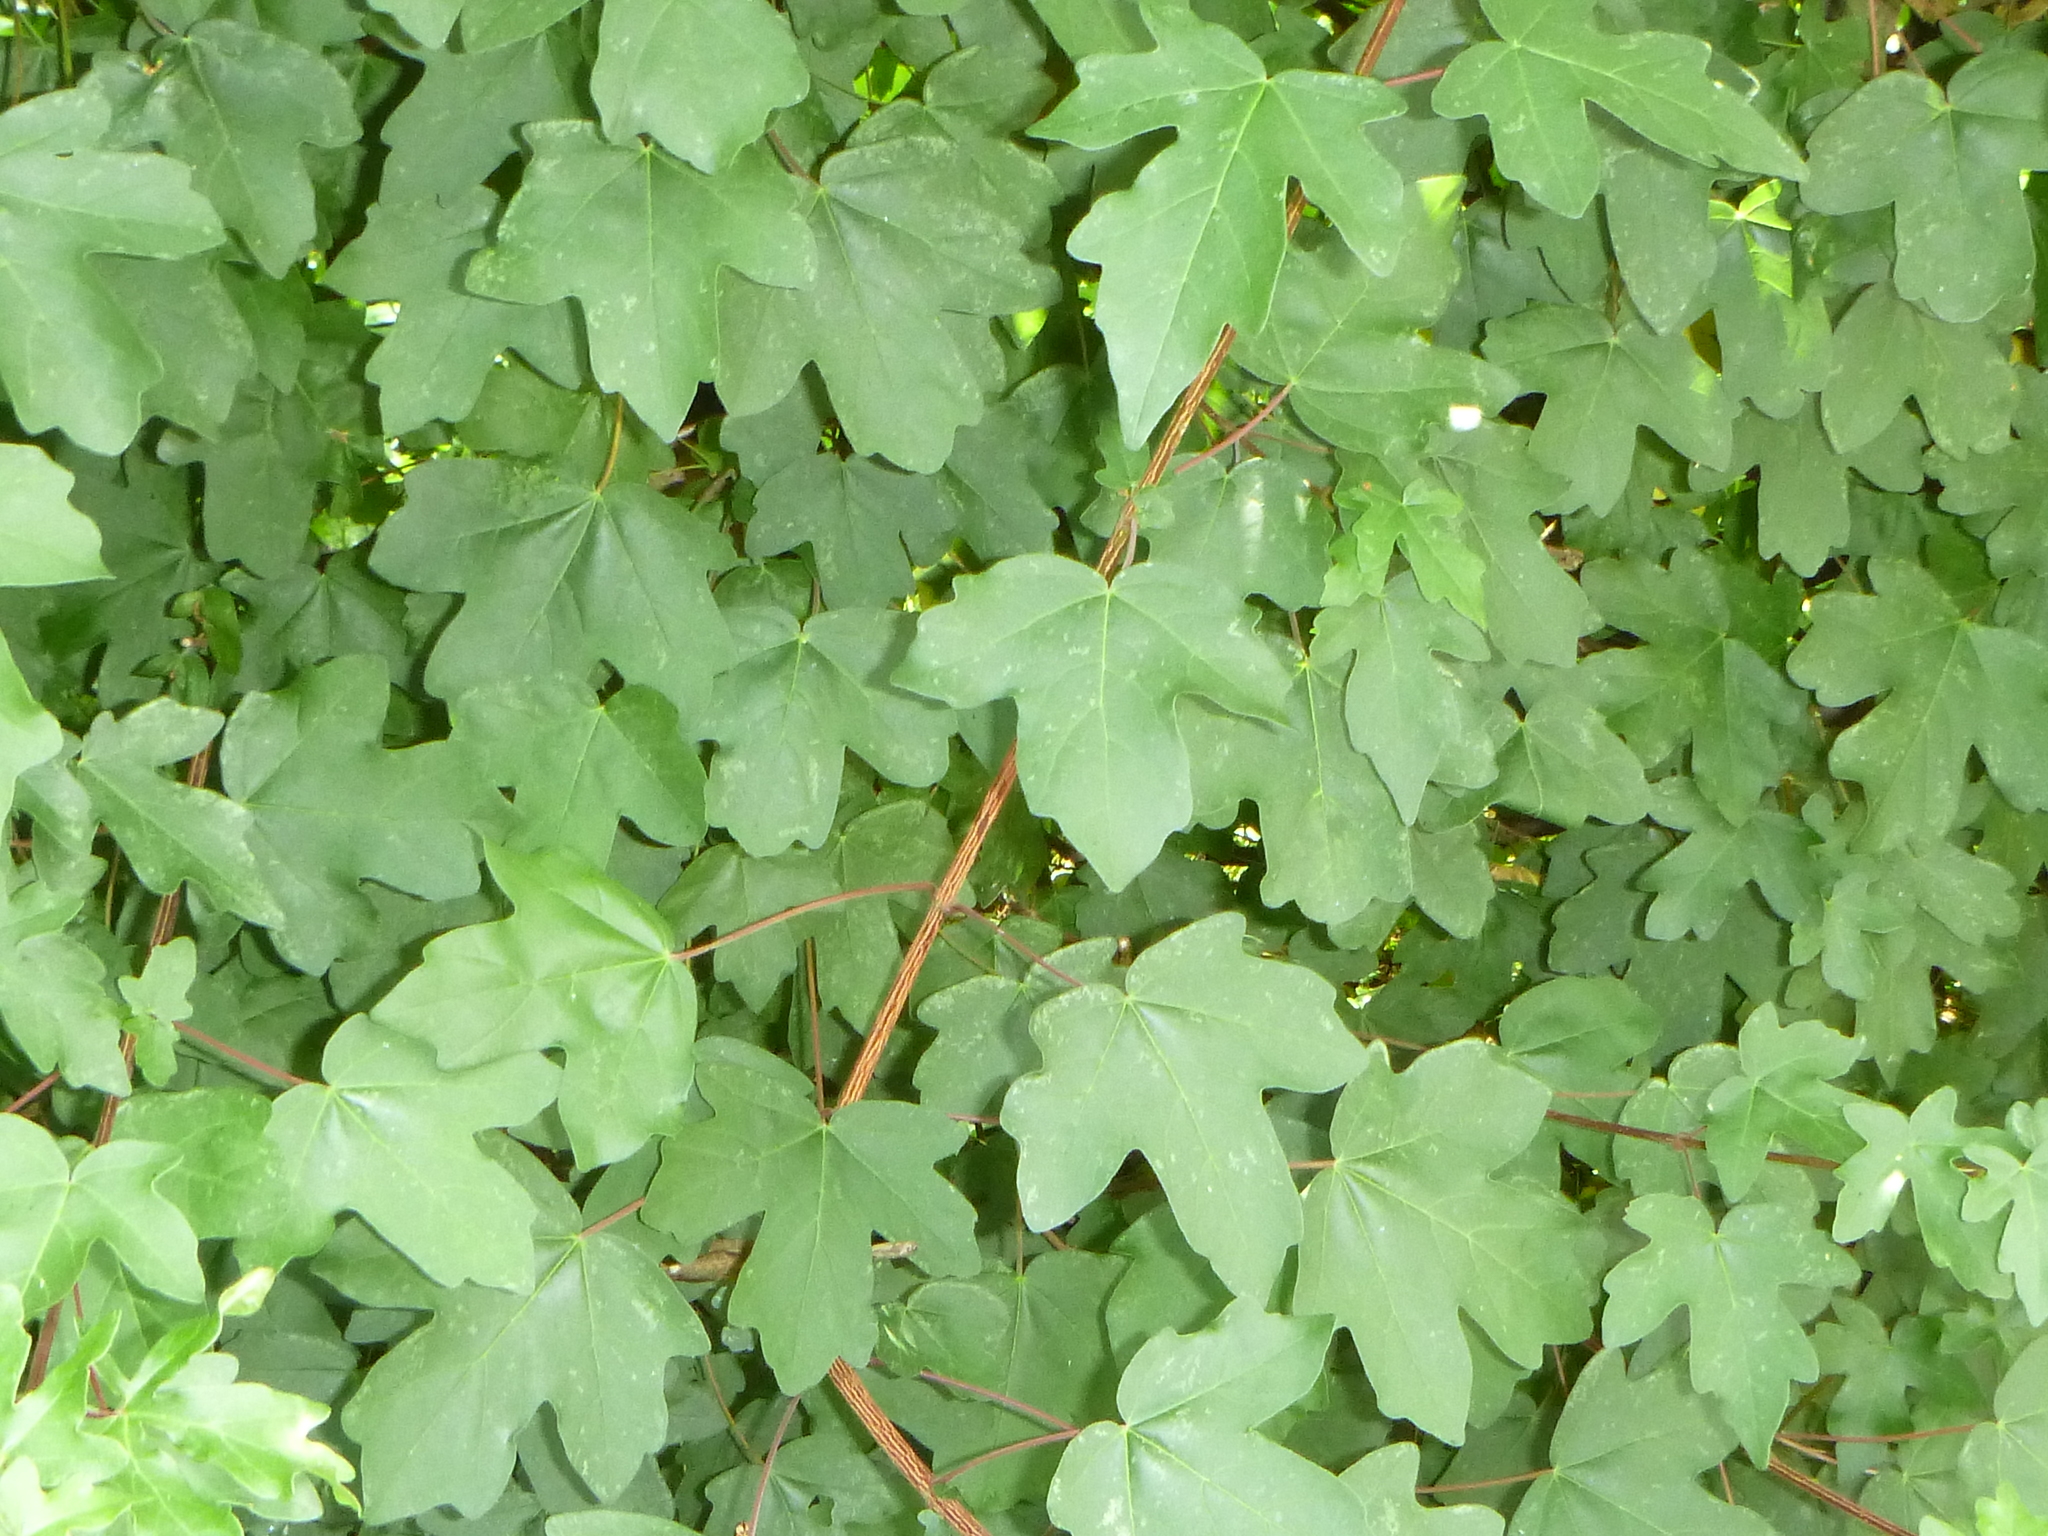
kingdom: Plantae
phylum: Tracheophyta
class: Magnoliopsida
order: Sapindales
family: Sapindaceae
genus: Acer
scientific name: Acer campestre
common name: Field maple
